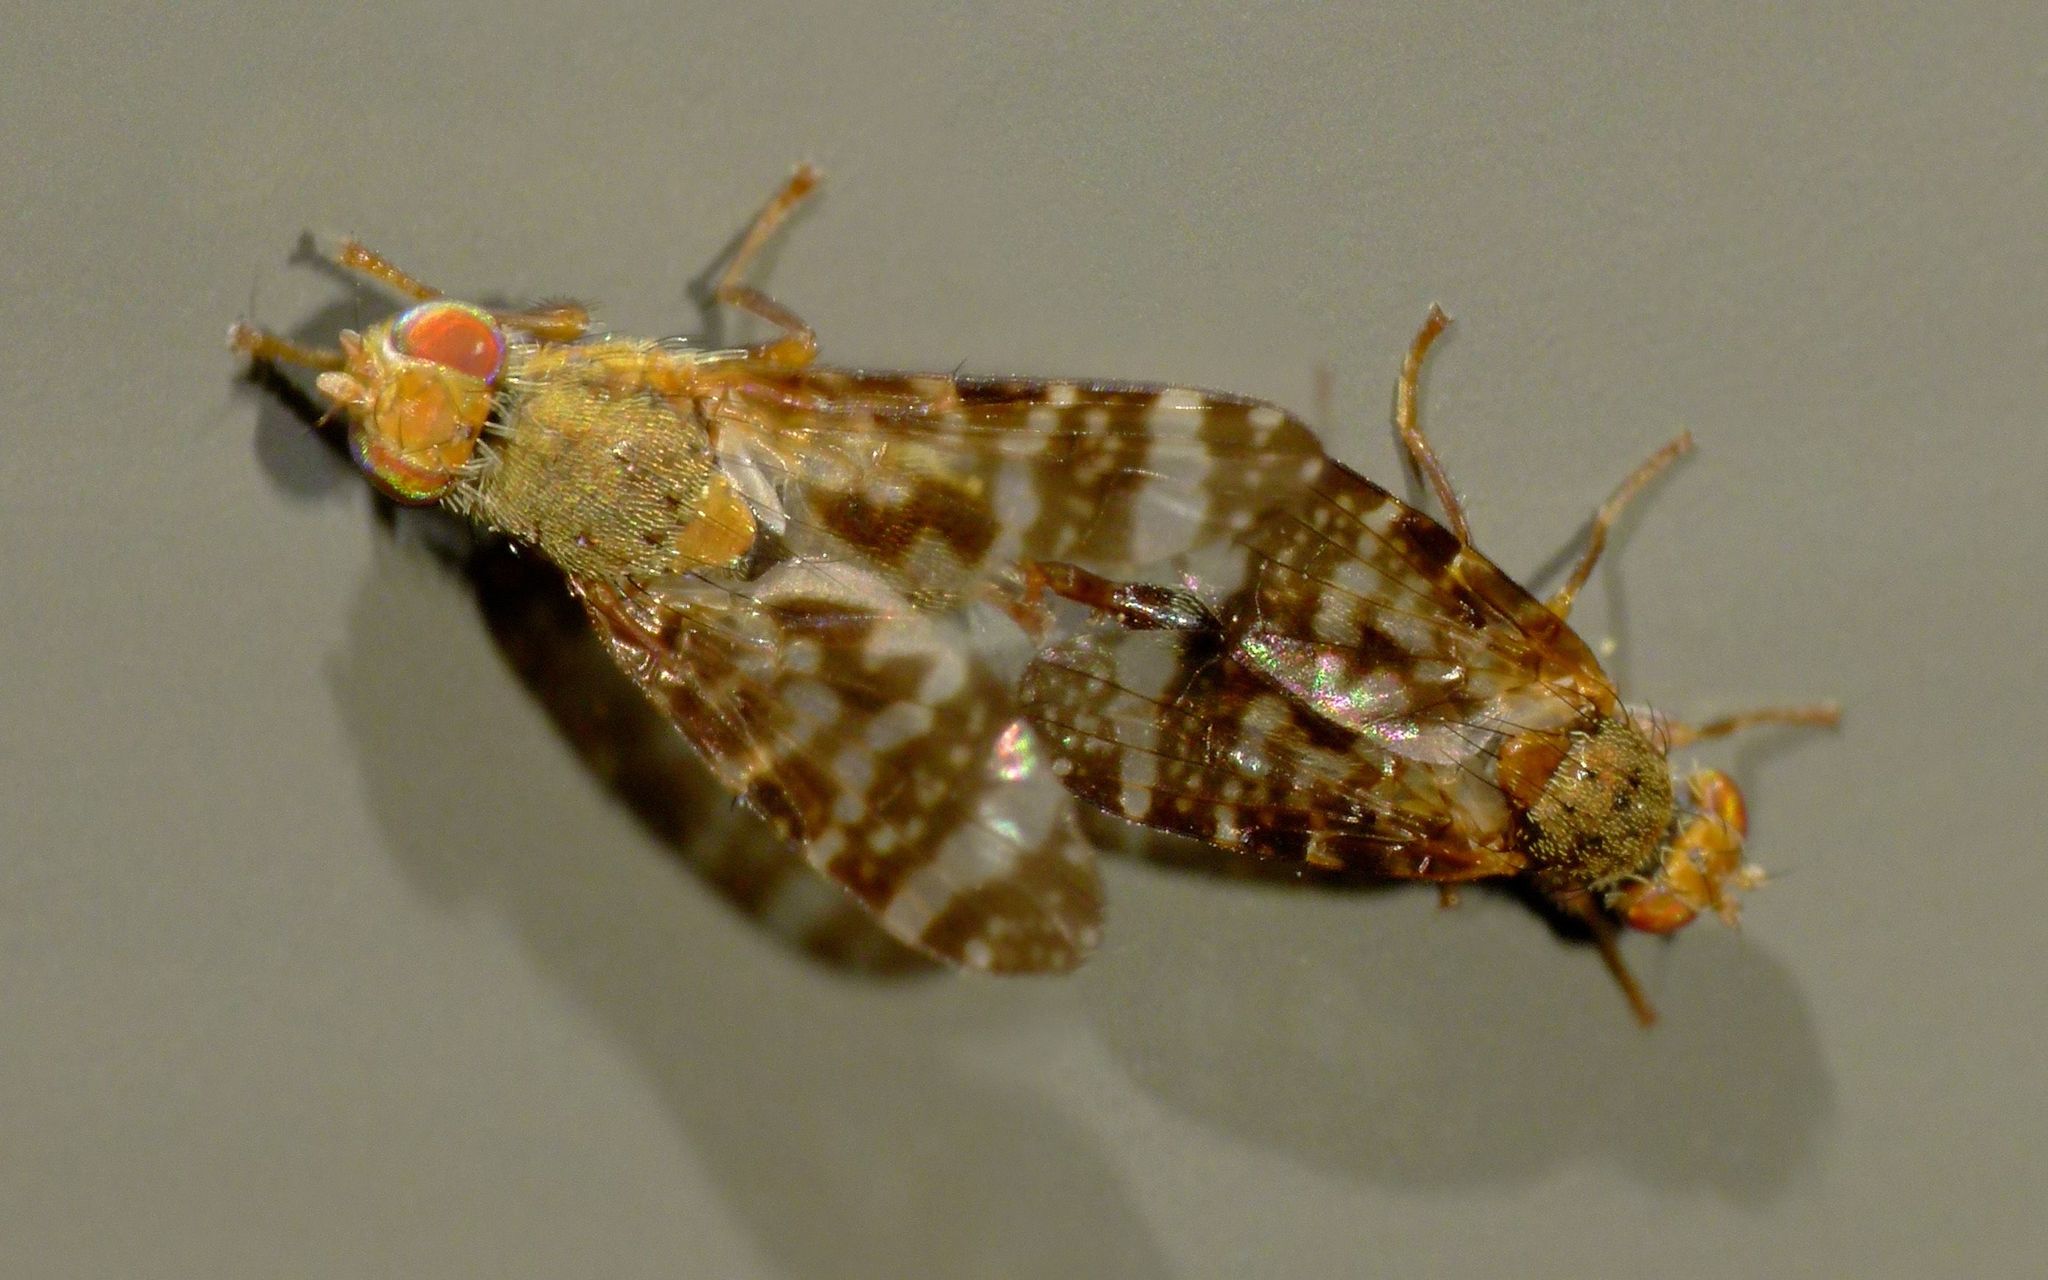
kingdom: Animalia
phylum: Arthropoda
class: Insecta
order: Diptera
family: Tephritidae
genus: Sphenella
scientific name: Sphenella
